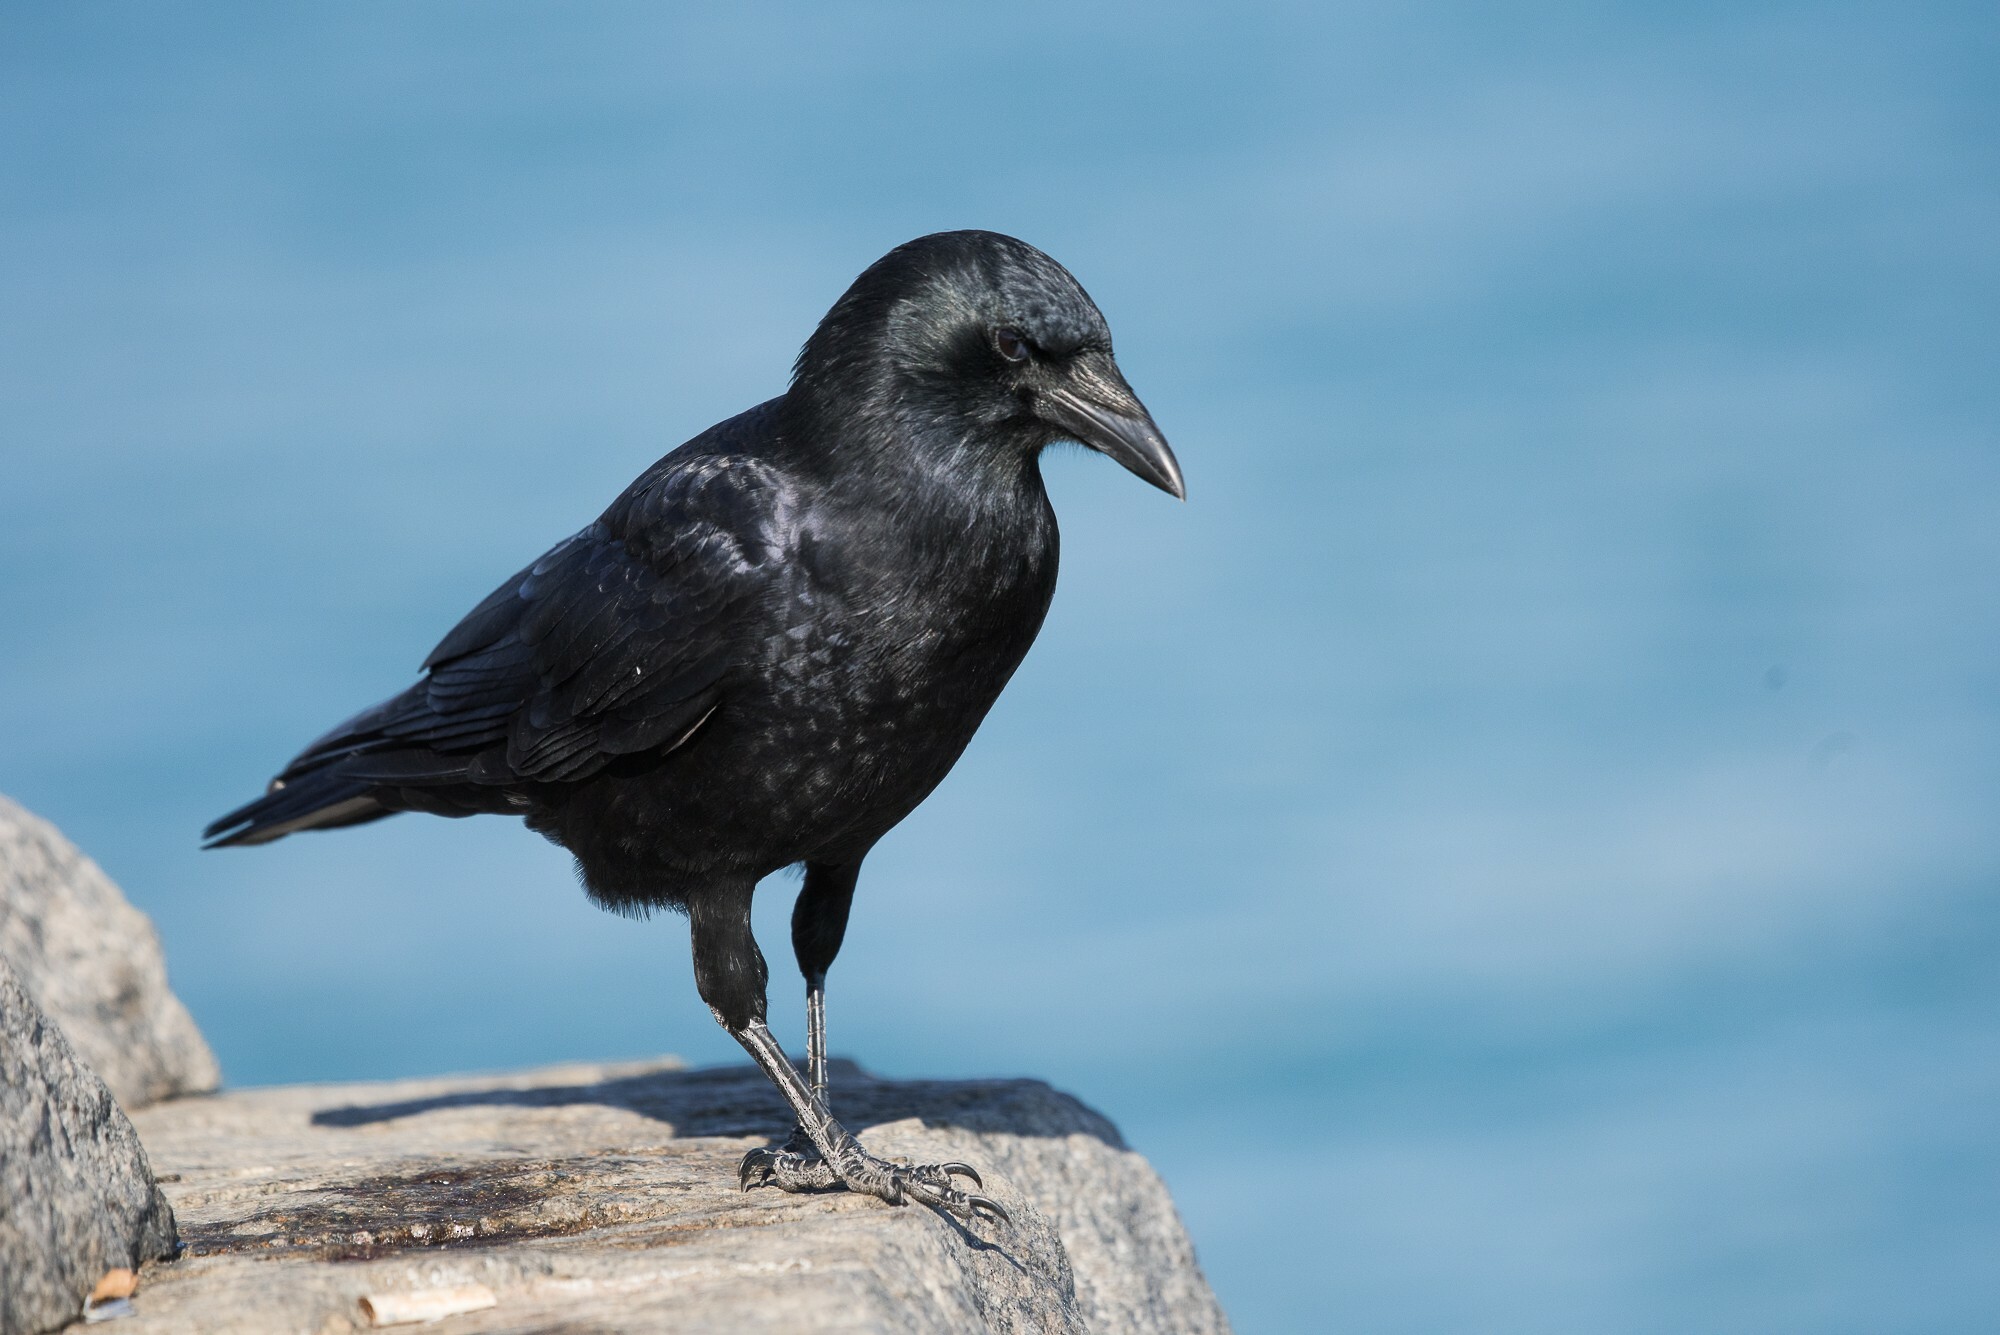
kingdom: Animalia
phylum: Chordata
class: Aves
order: Passeriformes
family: Corvidae
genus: Corvus
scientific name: Corvus brachyrhynchos
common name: American crow
